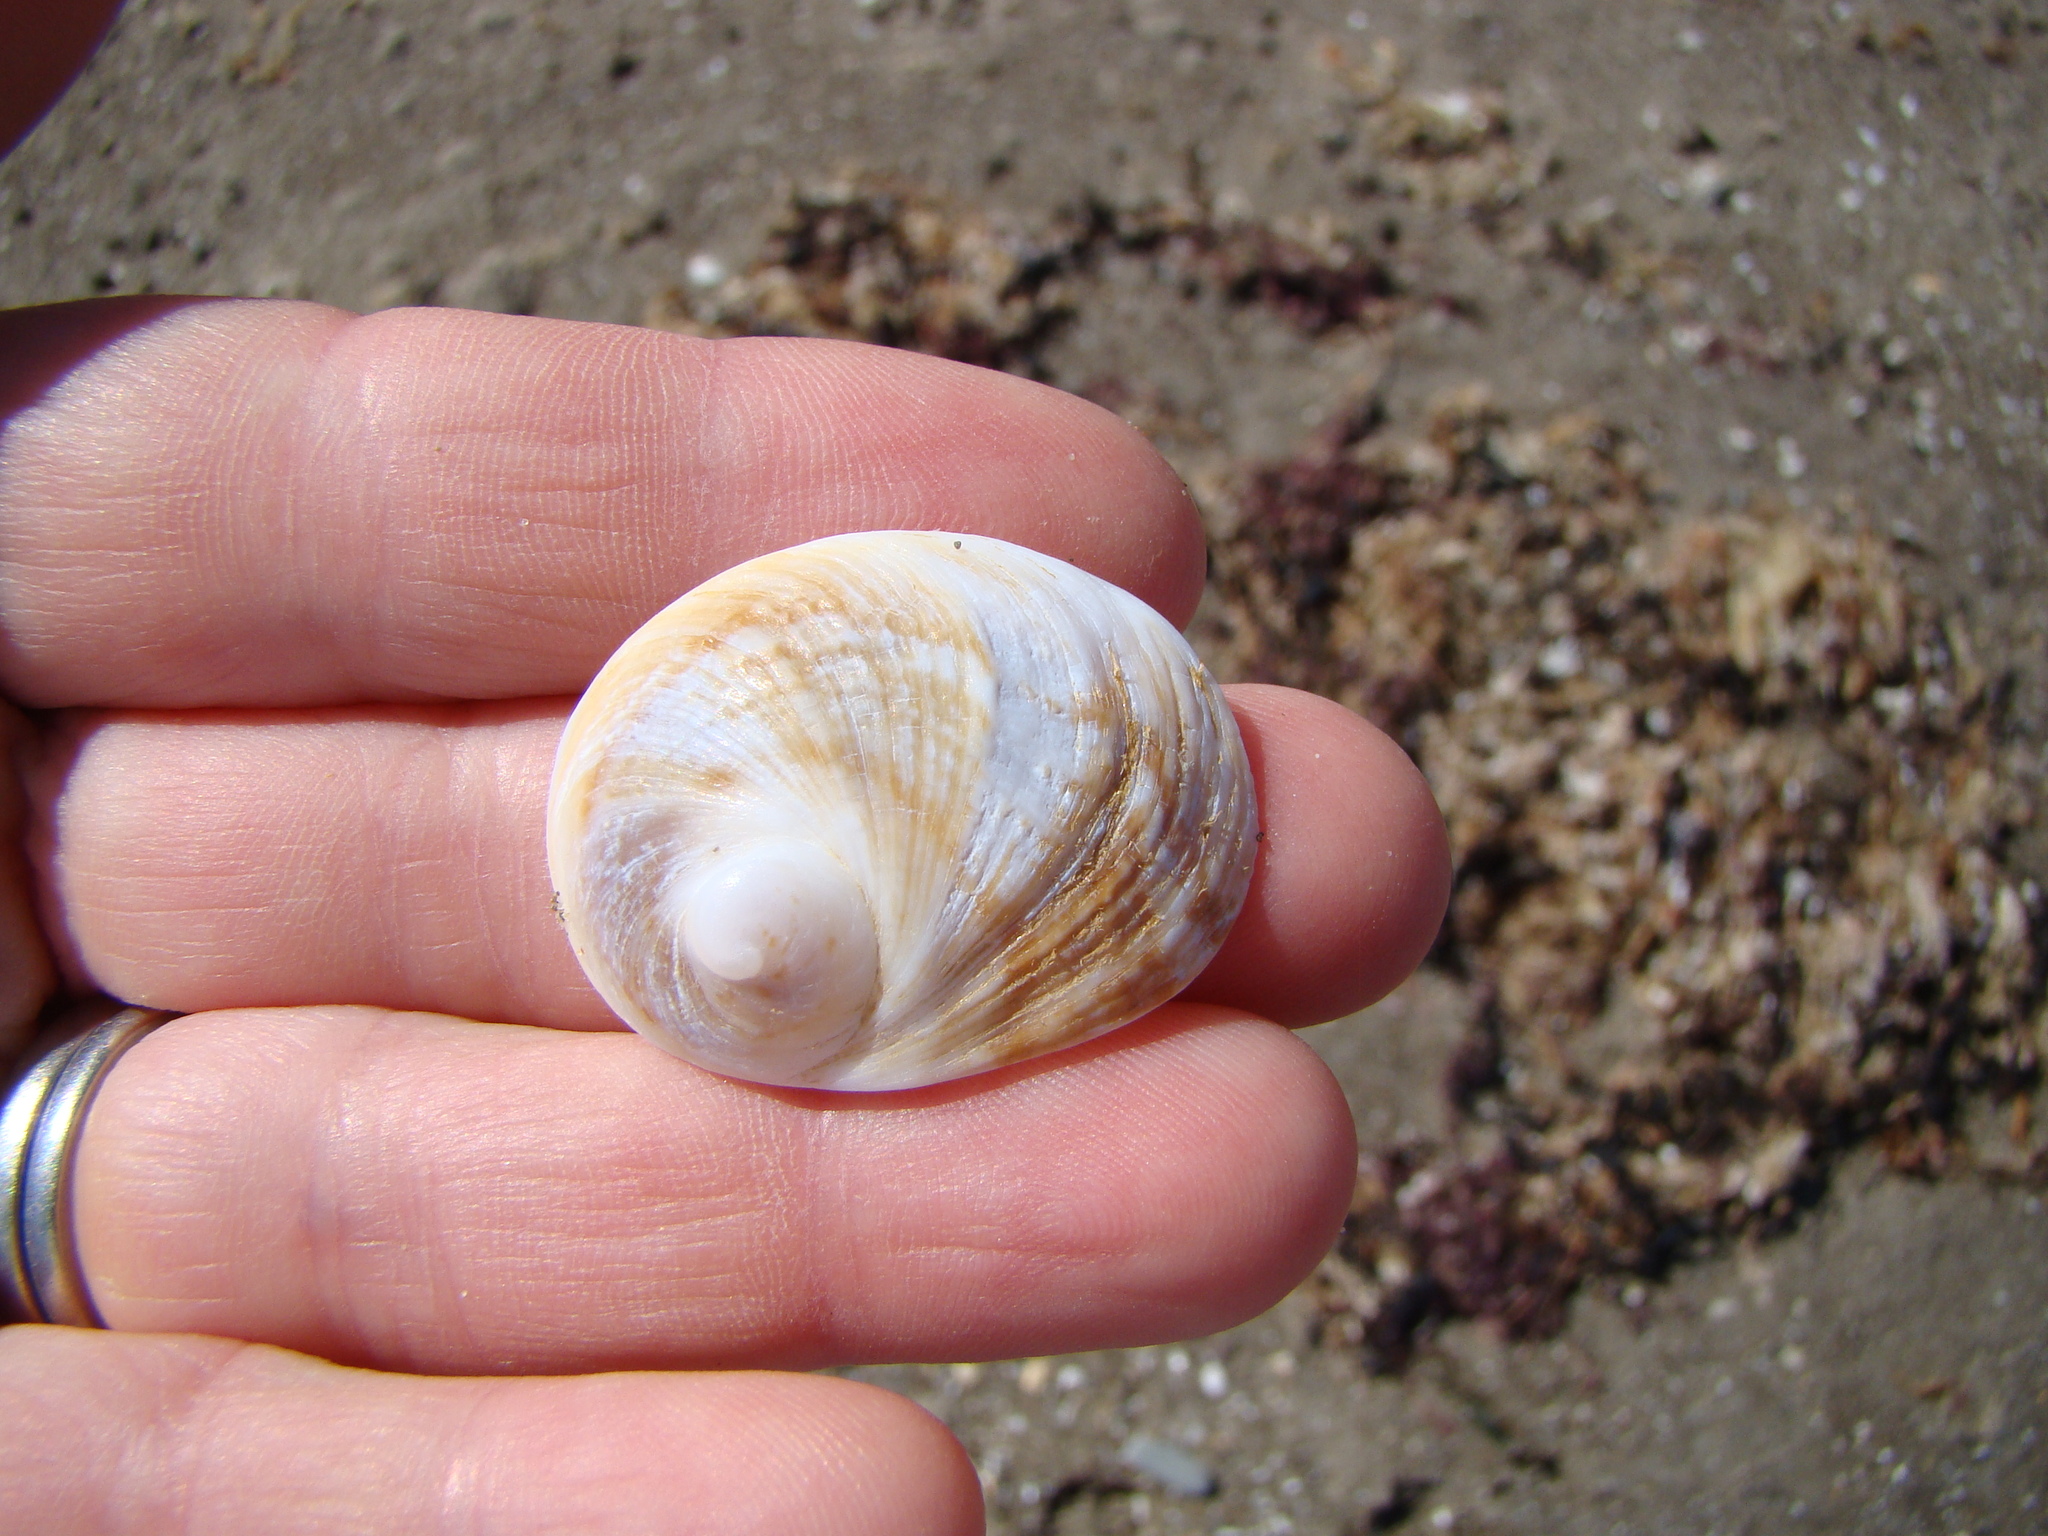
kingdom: Animalia
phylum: Mollusca
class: Gastropoda
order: Littorinimorpha
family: Calyptraeidae
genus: Sigapatella
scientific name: Sigapatella novaezelandiae
